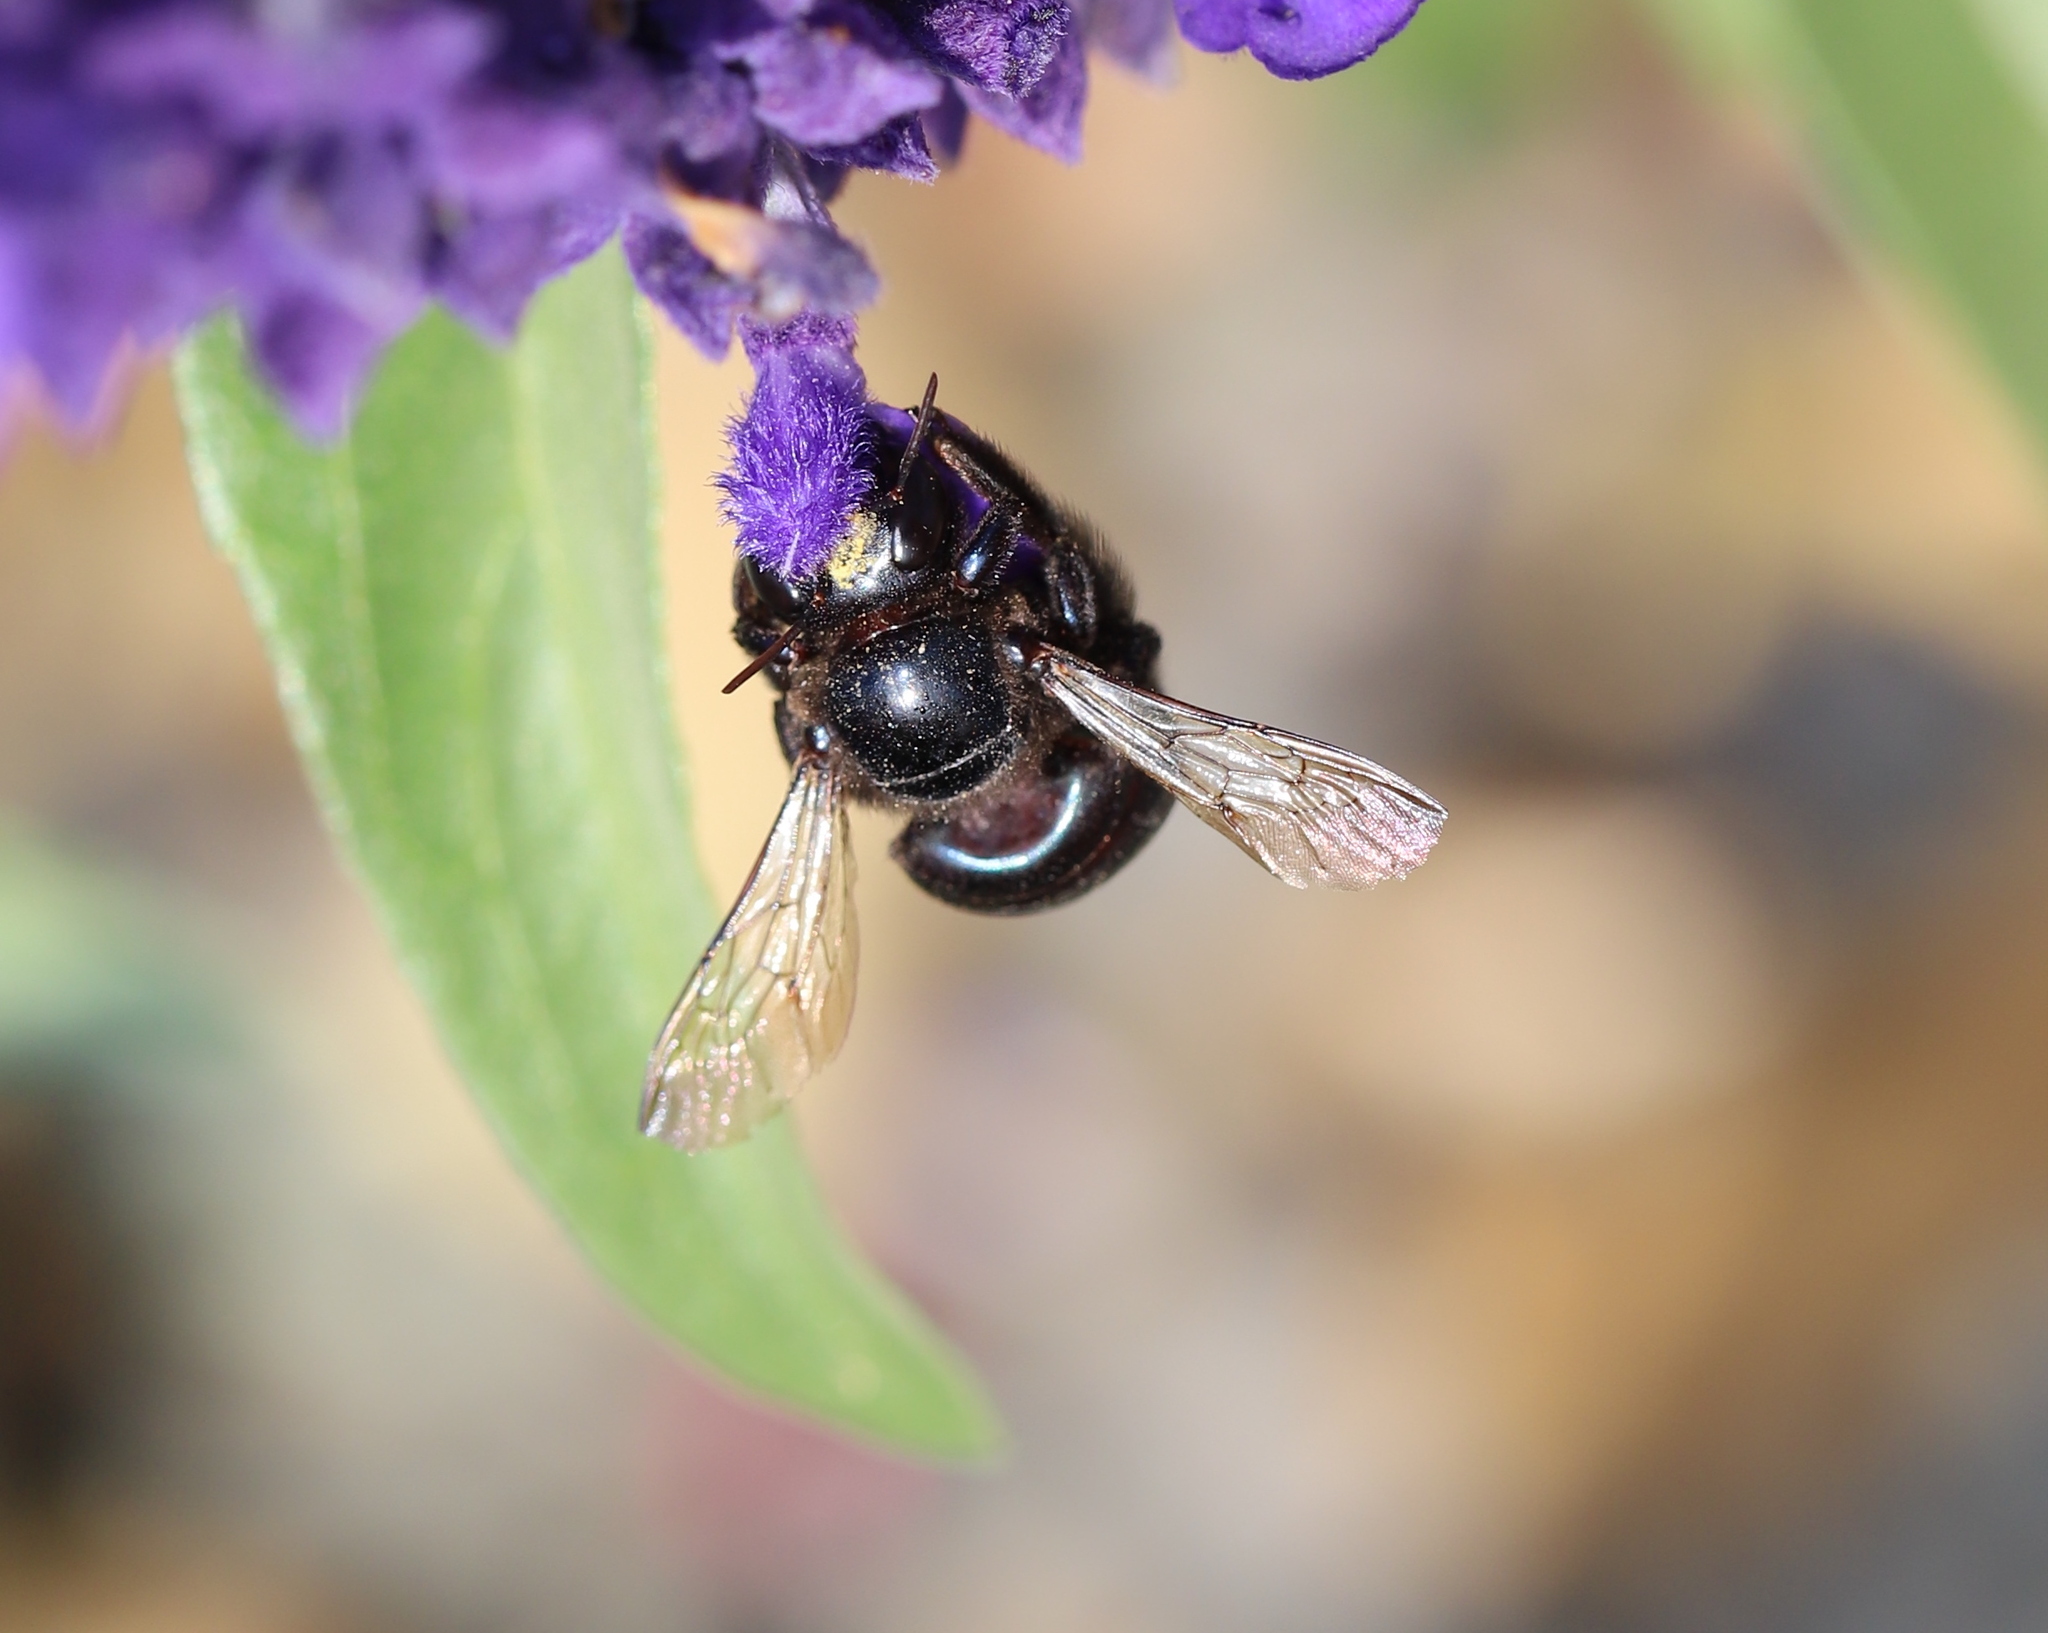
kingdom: Animalia
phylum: Arthropoda
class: Insecta
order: Hymenoptera
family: Apidae
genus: Xylocopa
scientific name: Xylocopa splendidula
